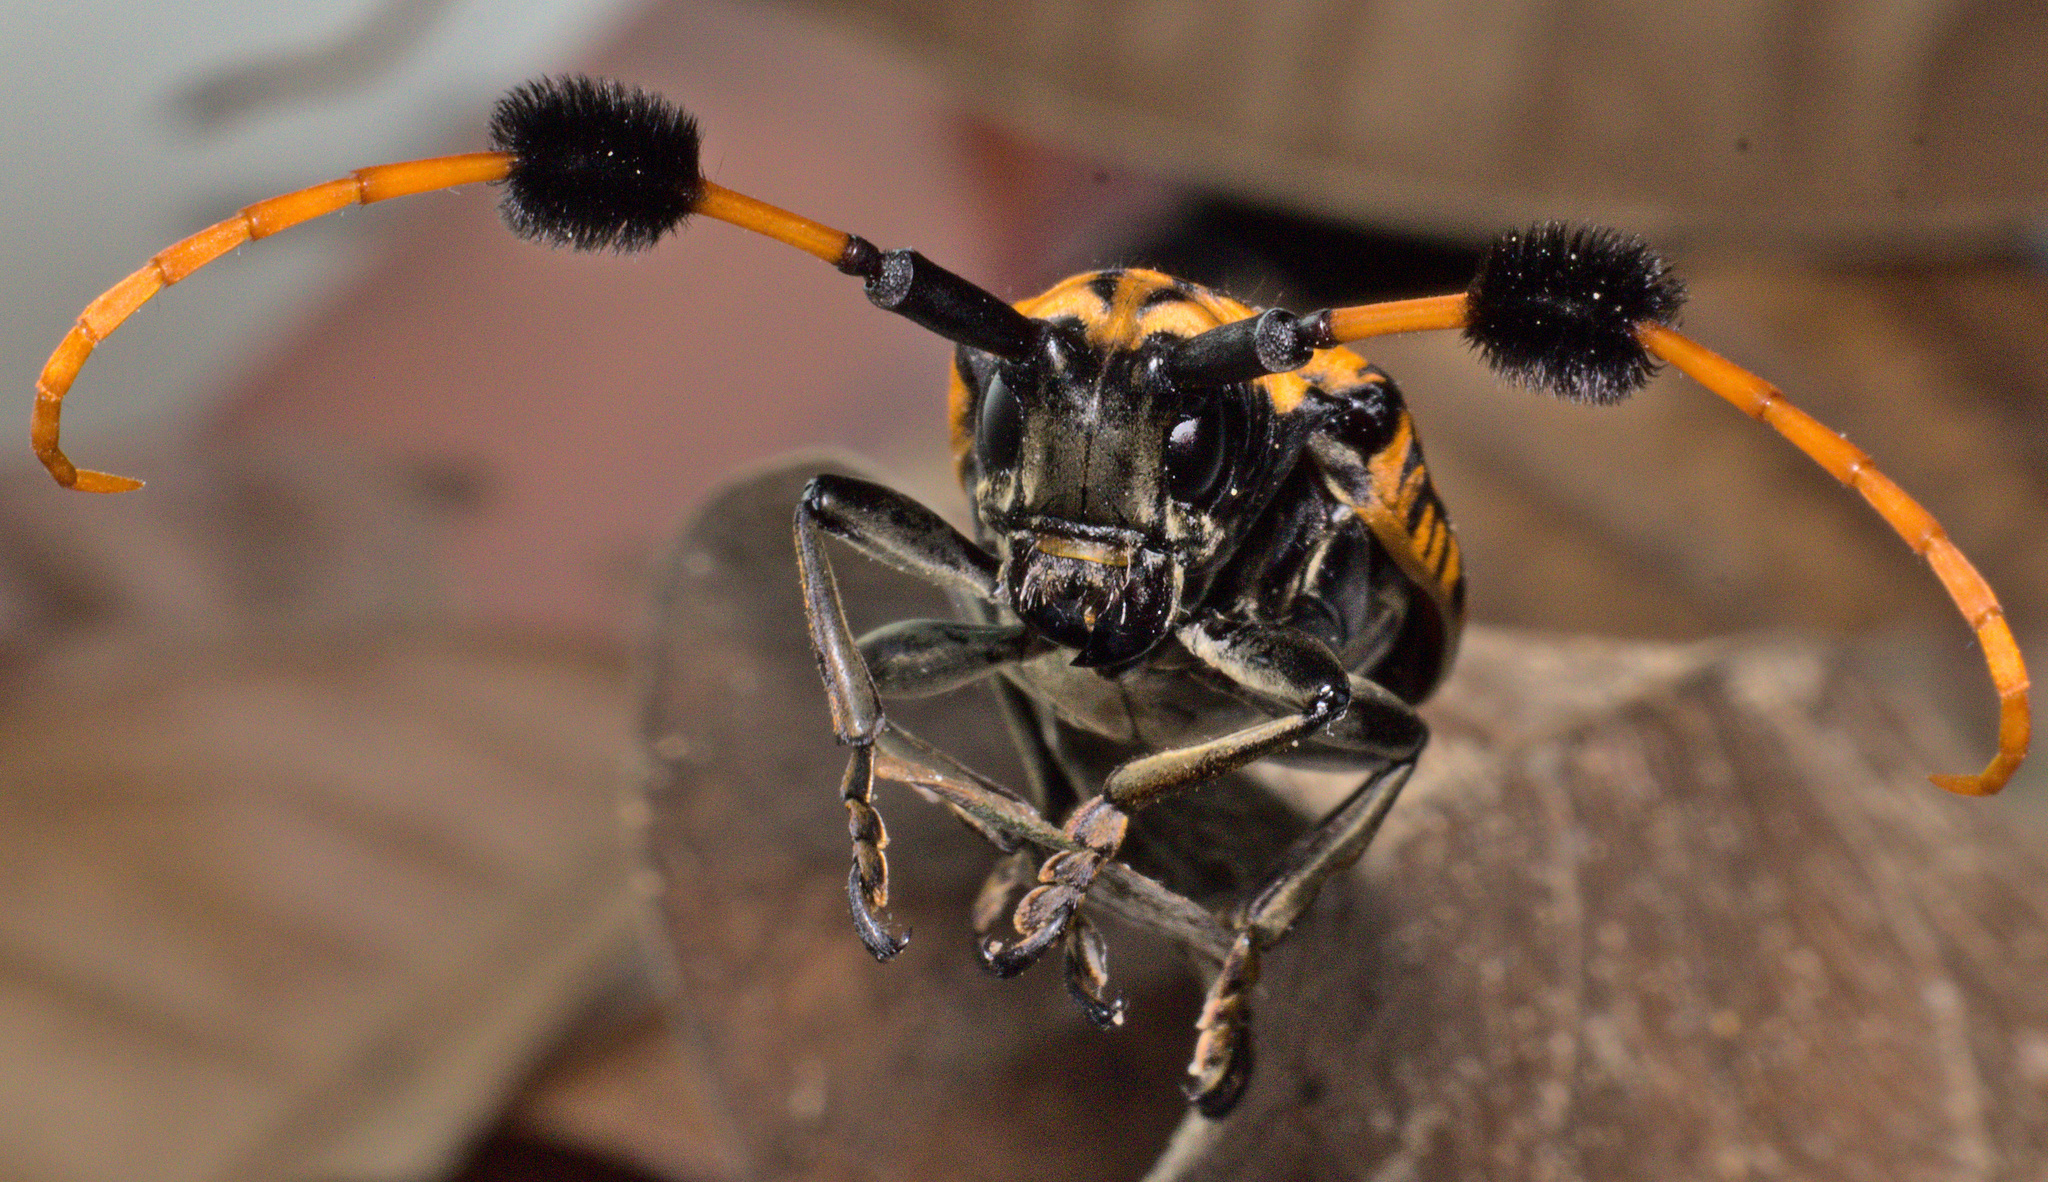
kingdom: Animalia
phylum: Arthropoda
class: Insecta
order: Coleoptera
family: Cerambycidae
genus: Aristobia
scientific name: Aristobia approximator
